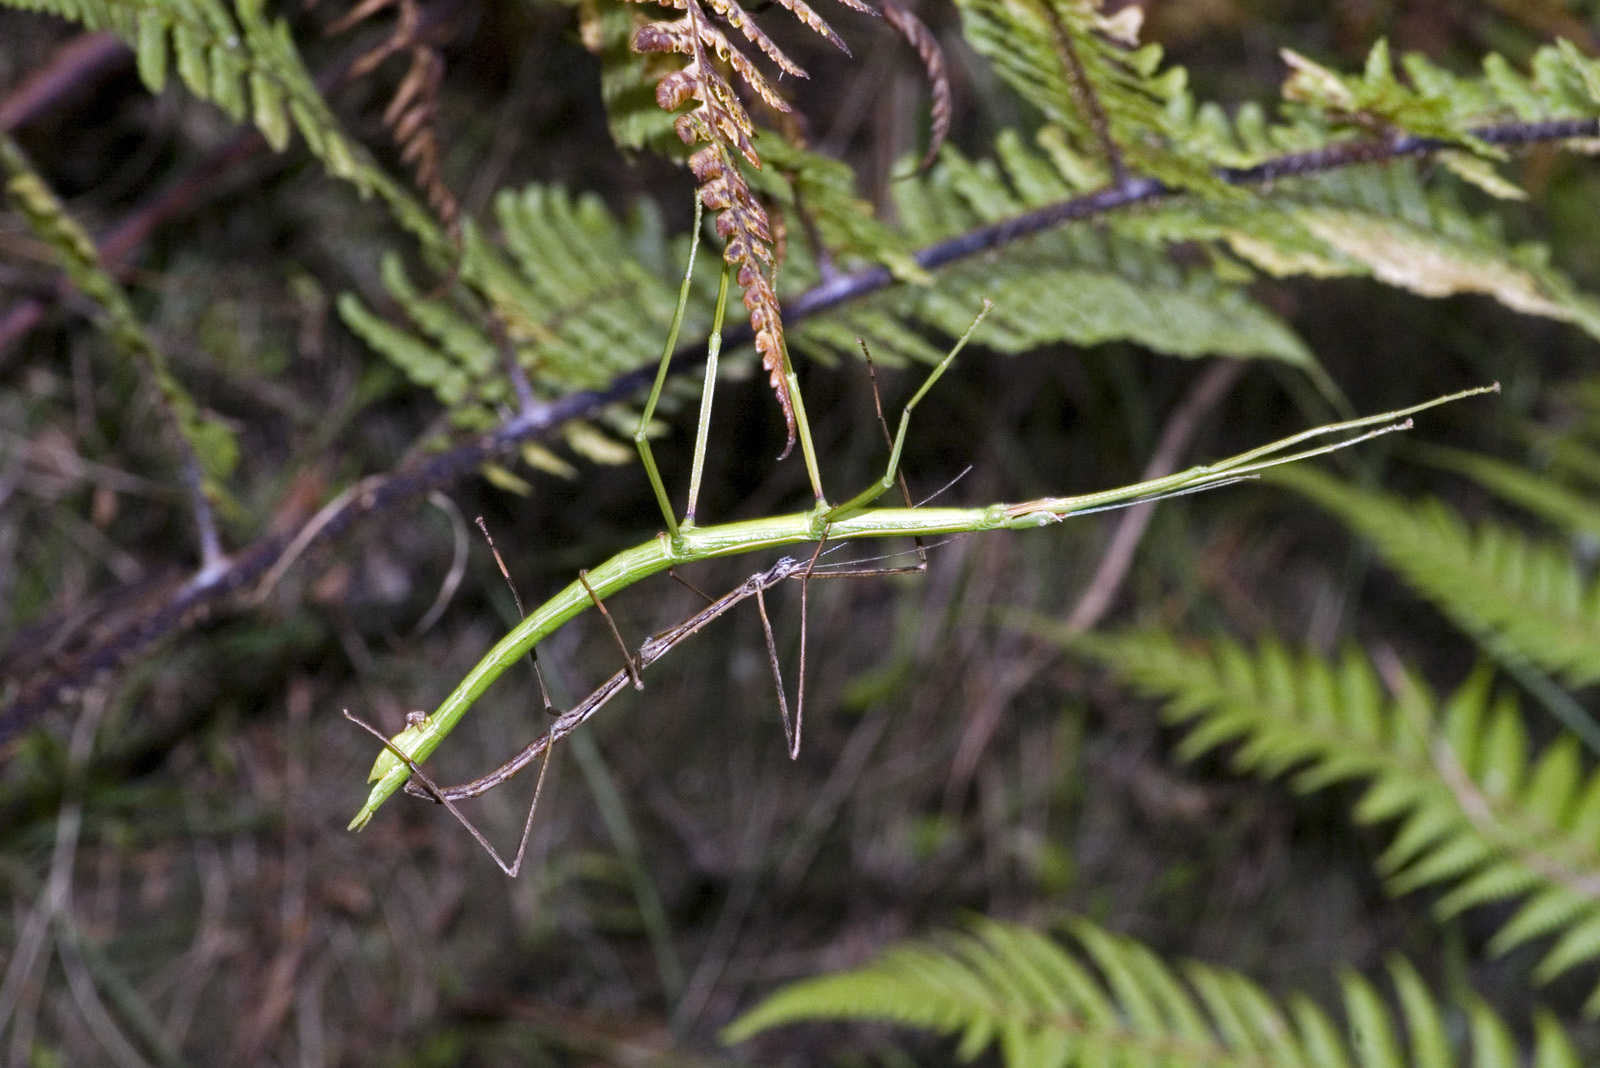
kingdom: Animalia
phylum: Arthropoda
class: Insecta
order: Phasmida
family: Phasmatidae
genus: Clitarchus
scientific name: Clitarchus hookeri
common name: Smooth stick insect
